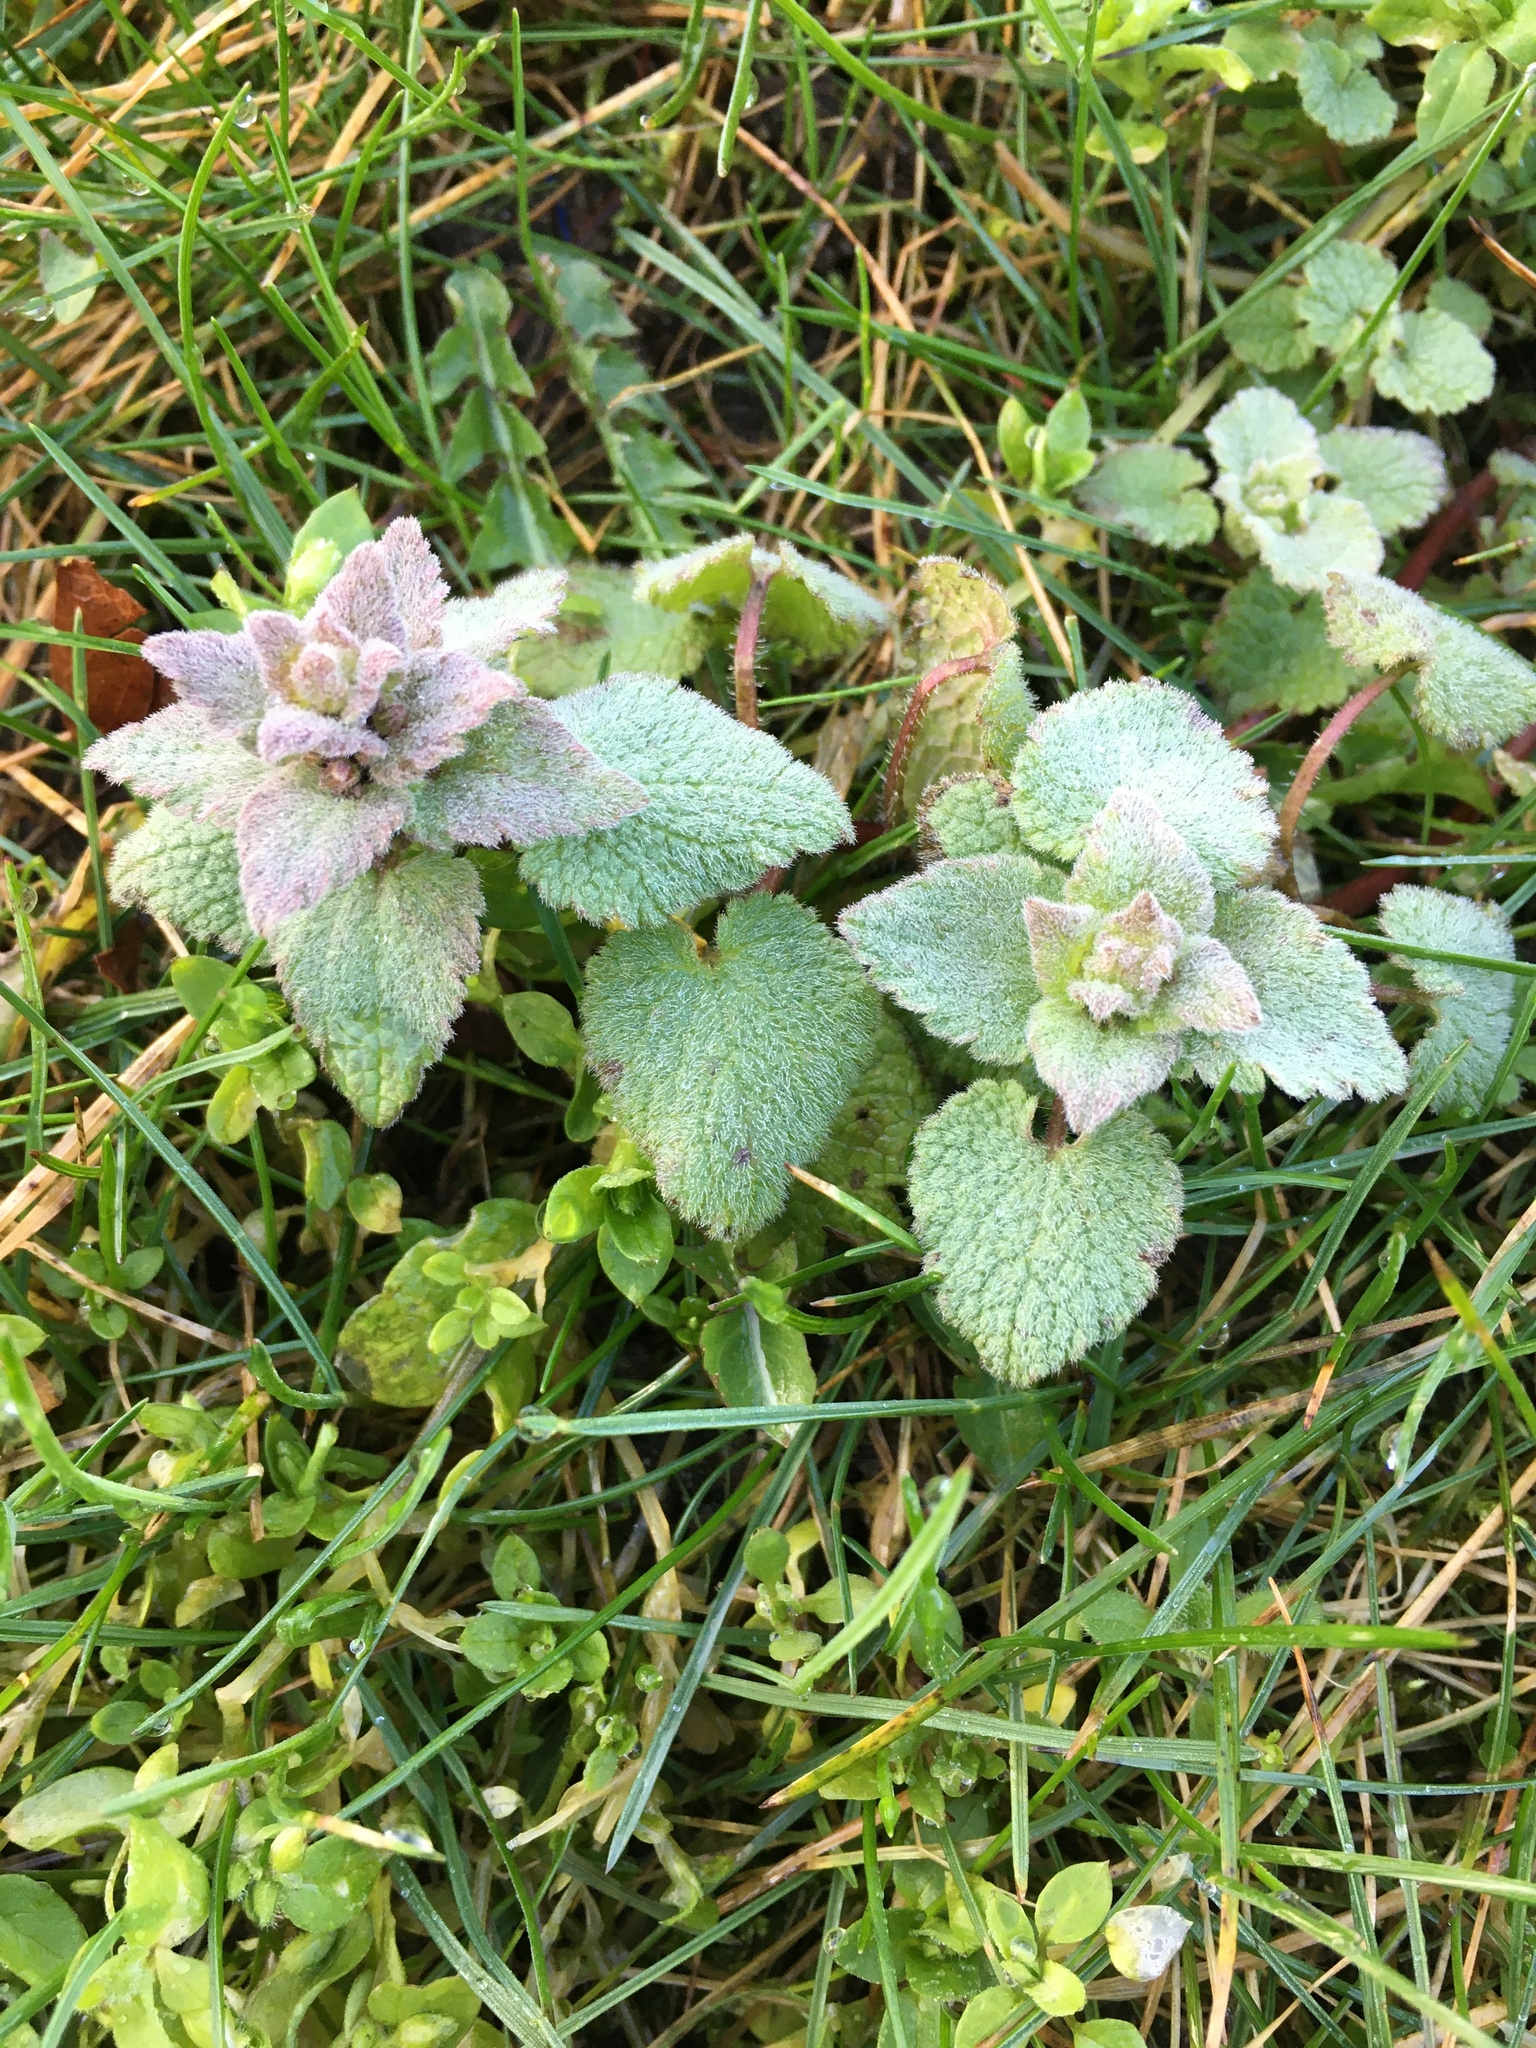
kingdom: Plantae
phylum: Tracheophyta
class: Magnoliopsida
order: Lamiales
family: Lamiaceae
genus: Lamium
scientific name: Lamium purpureum
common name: Red dead-nettle
